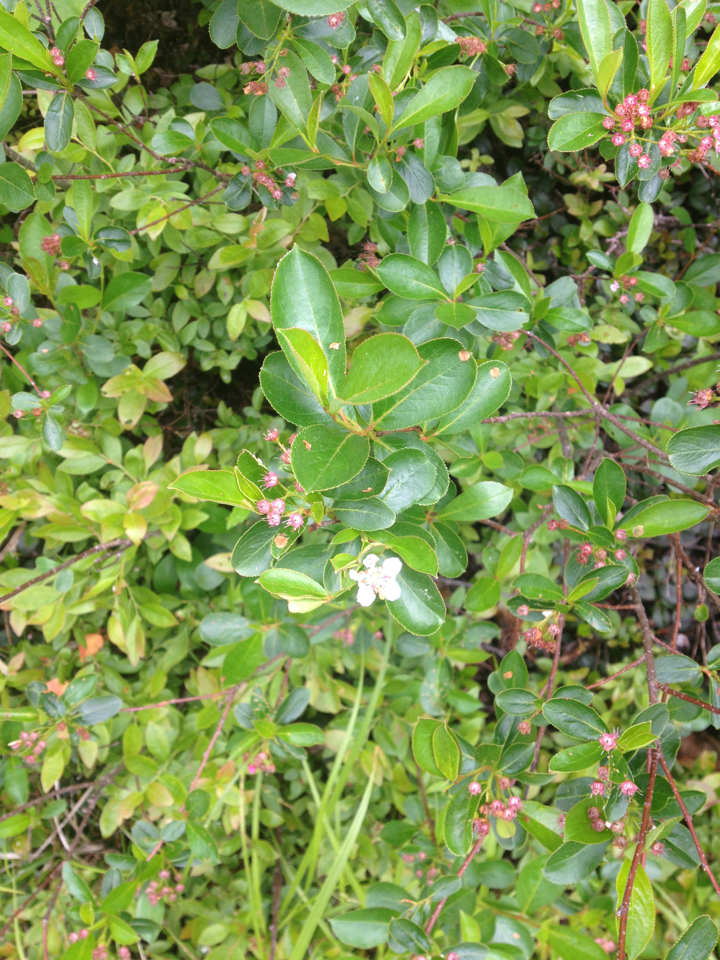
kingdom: Plantae
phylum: Tracheophyta
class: Magnoliopsida
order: Rosales
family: Rosaceae
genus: Aronia
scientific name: Aronia melanocarpa
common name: Black chokeberry
